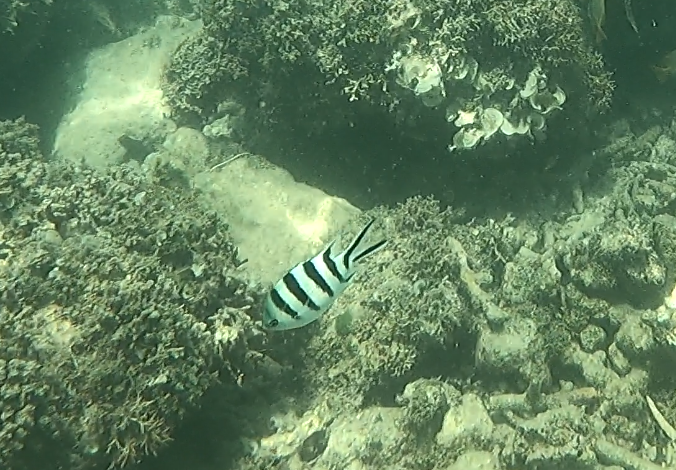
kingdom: Animalia
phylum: Chordata
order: Perciformes
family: Pomacentridae
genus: Abudefduf
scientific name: Abudefduf sexfasciatus
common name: Scissortail sergeant
